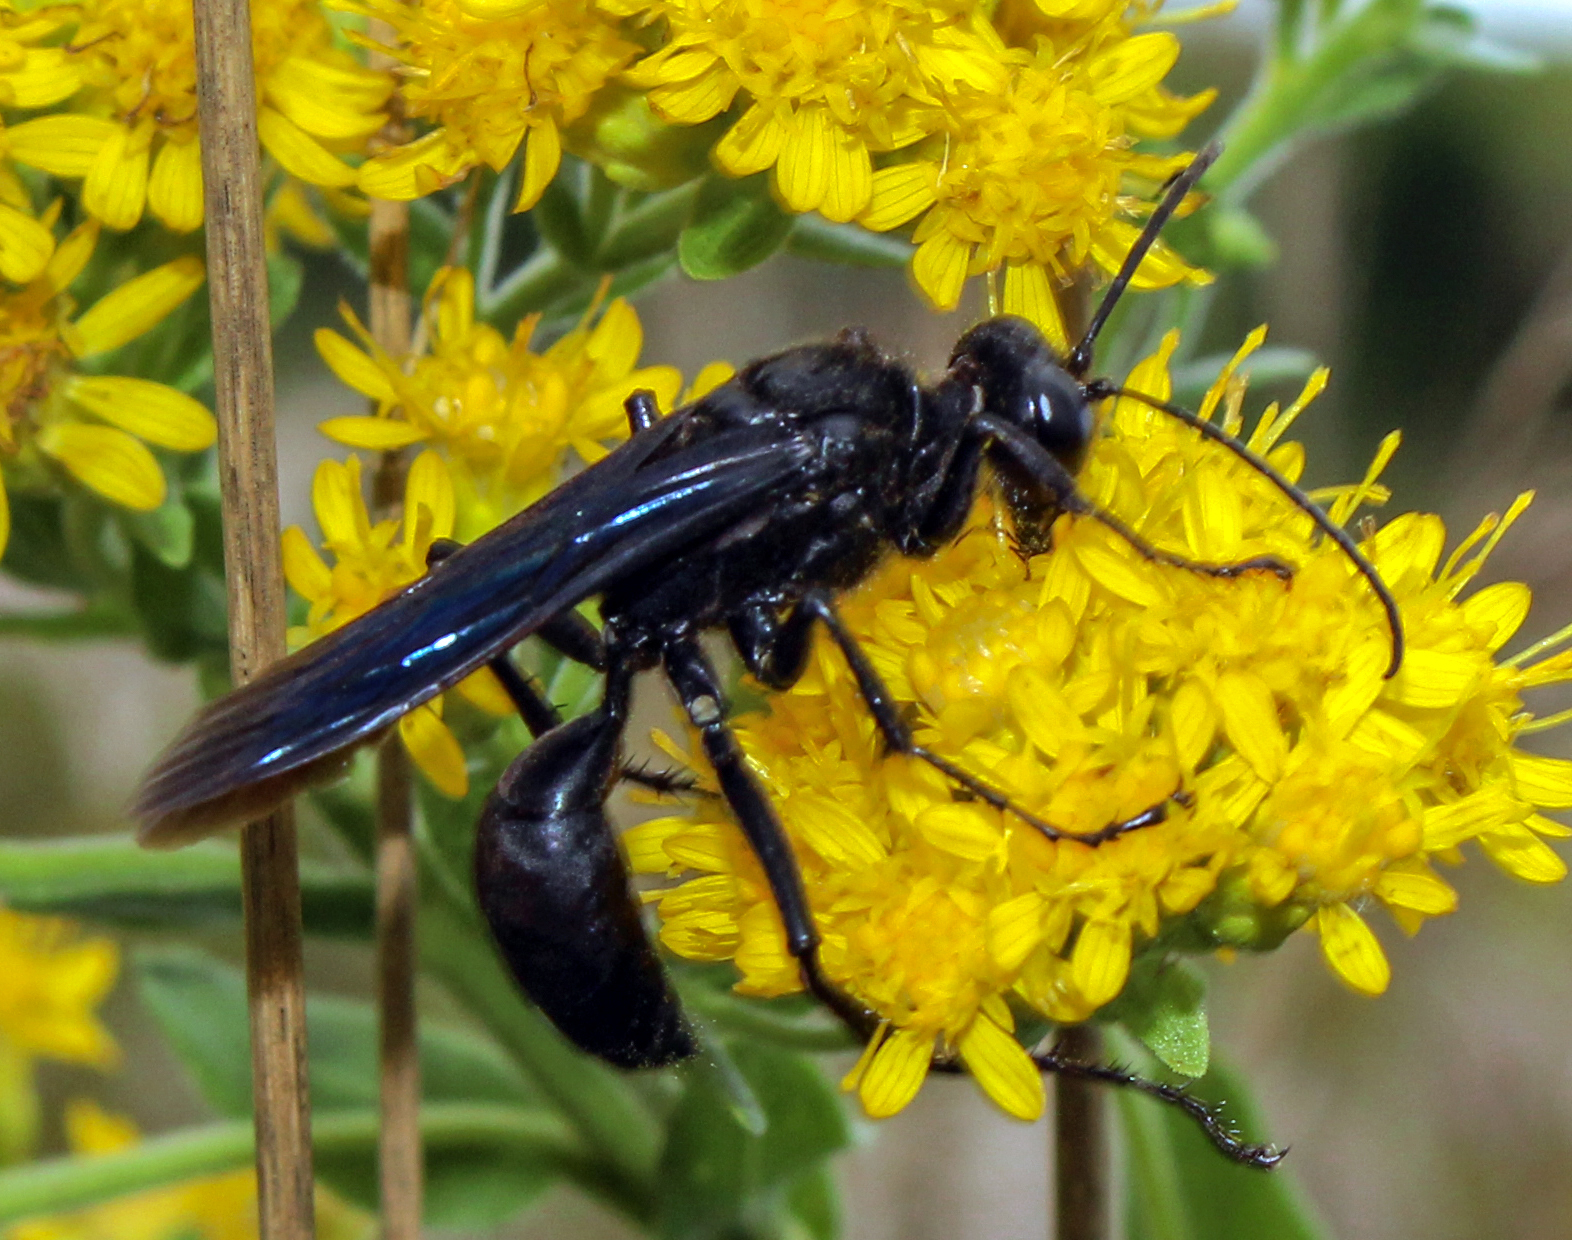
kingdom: Animalia
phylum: Arthropoda
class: Insecta
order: Hymenoptera
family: Sphecidae
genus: Sphex
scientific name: Sphex pensylvanicus
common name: Great black digger wasp
